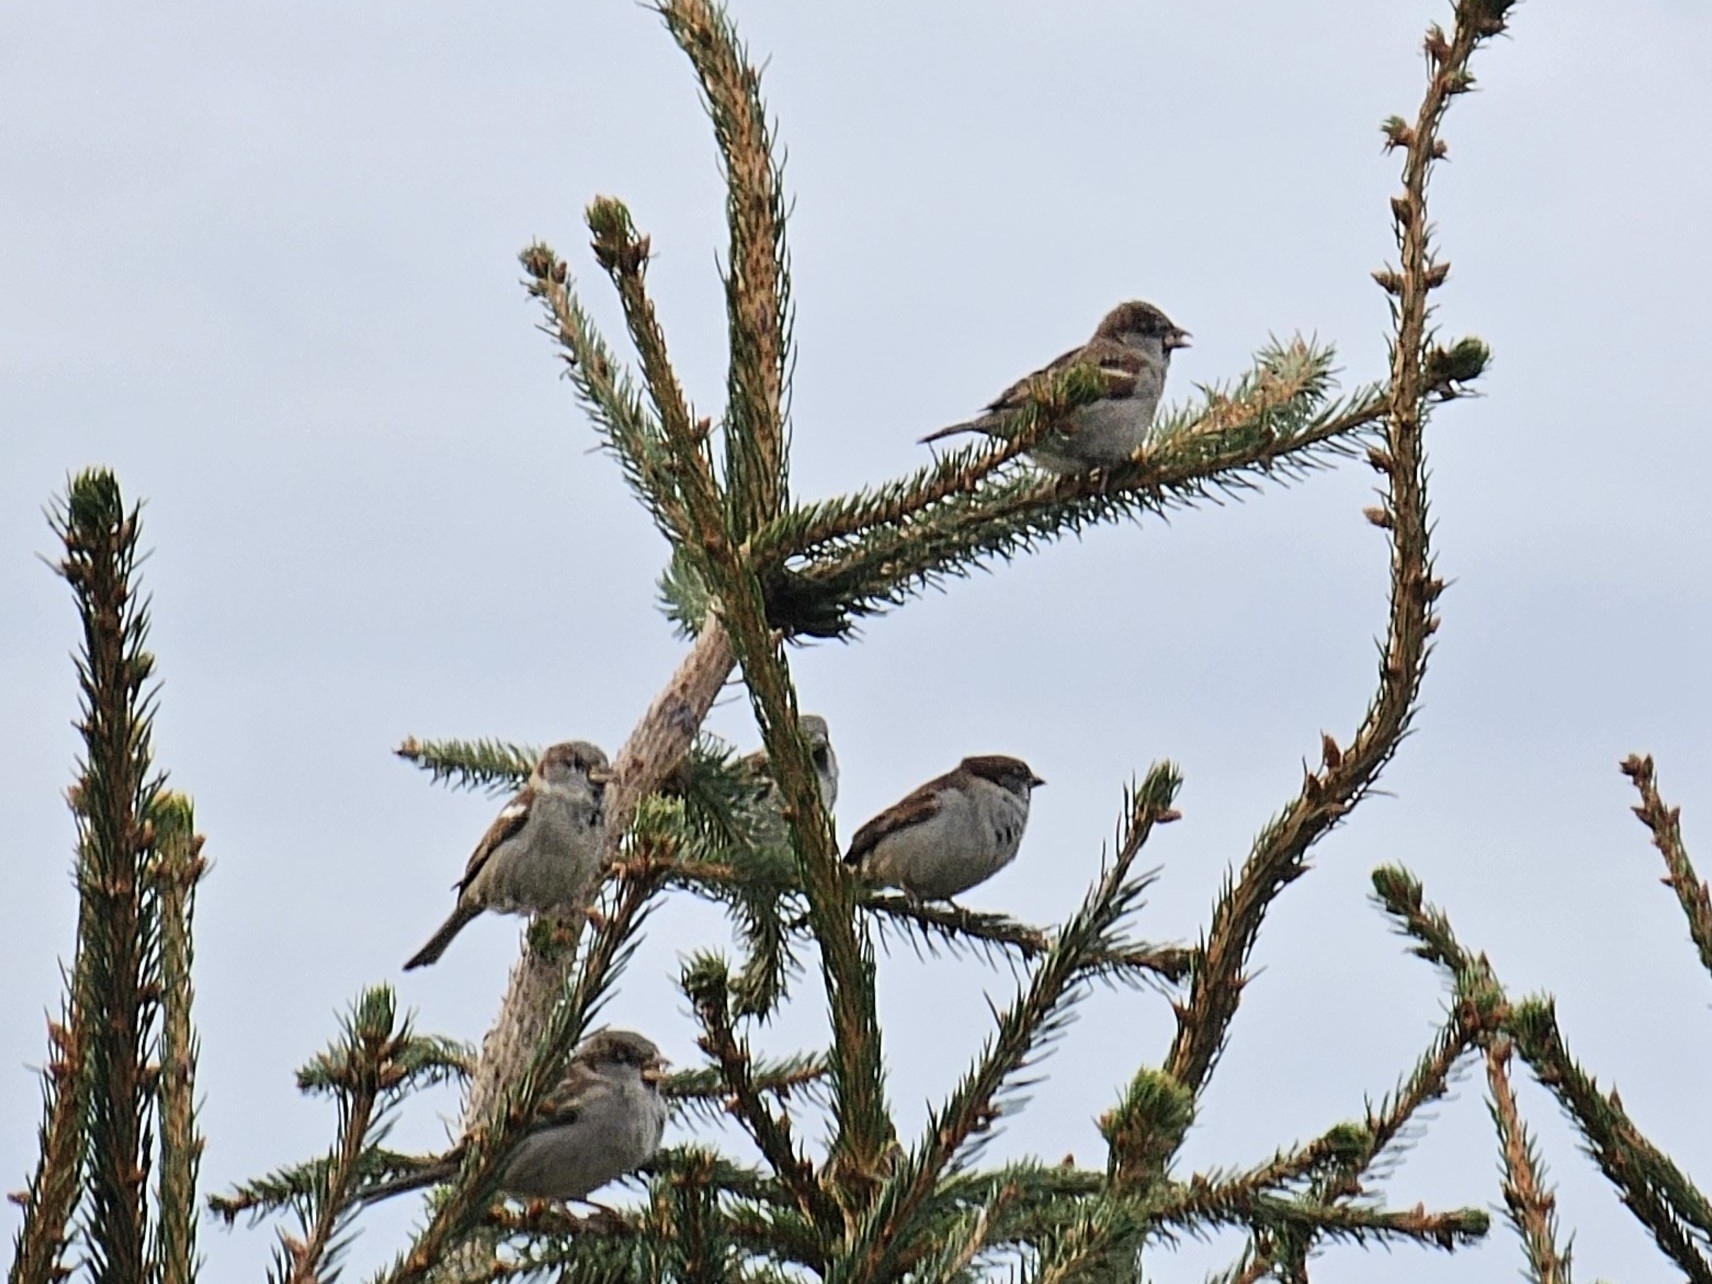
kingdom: Animalia
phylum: Chordata
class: Aves
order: Passeriformes
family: Passeridae
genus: Passer
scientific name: Passer domesticus
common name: House sparrow
